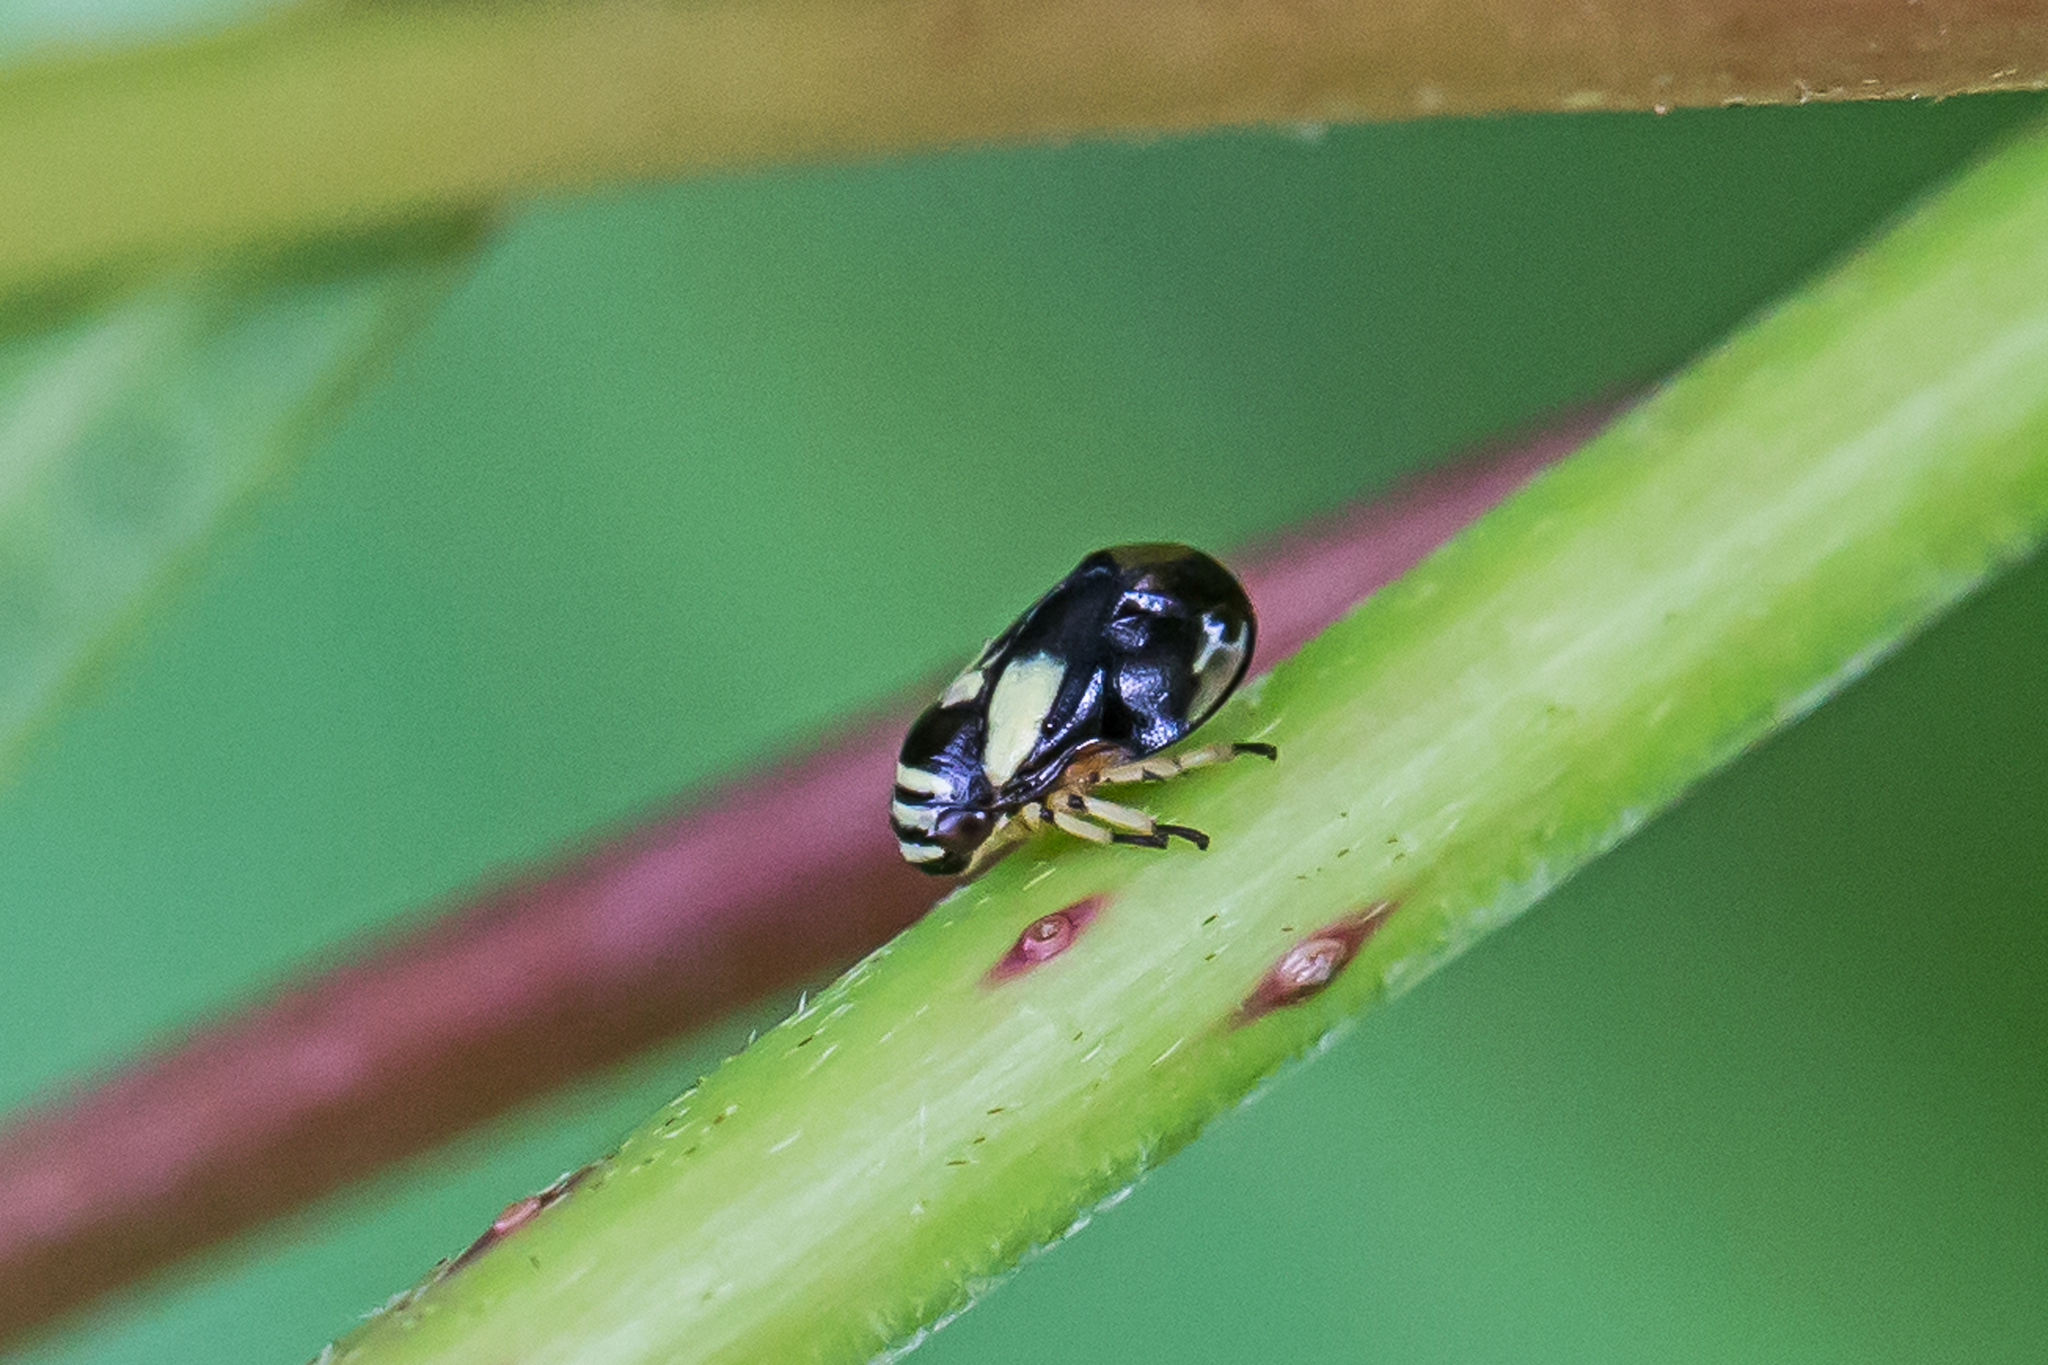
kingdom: Animalia
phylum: Arthropoda
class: Insecta
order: Hemiptera
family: Clastopteridae
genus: Clastoptera
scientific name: Clastoptera proteus
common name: Dogwood spittlebug
